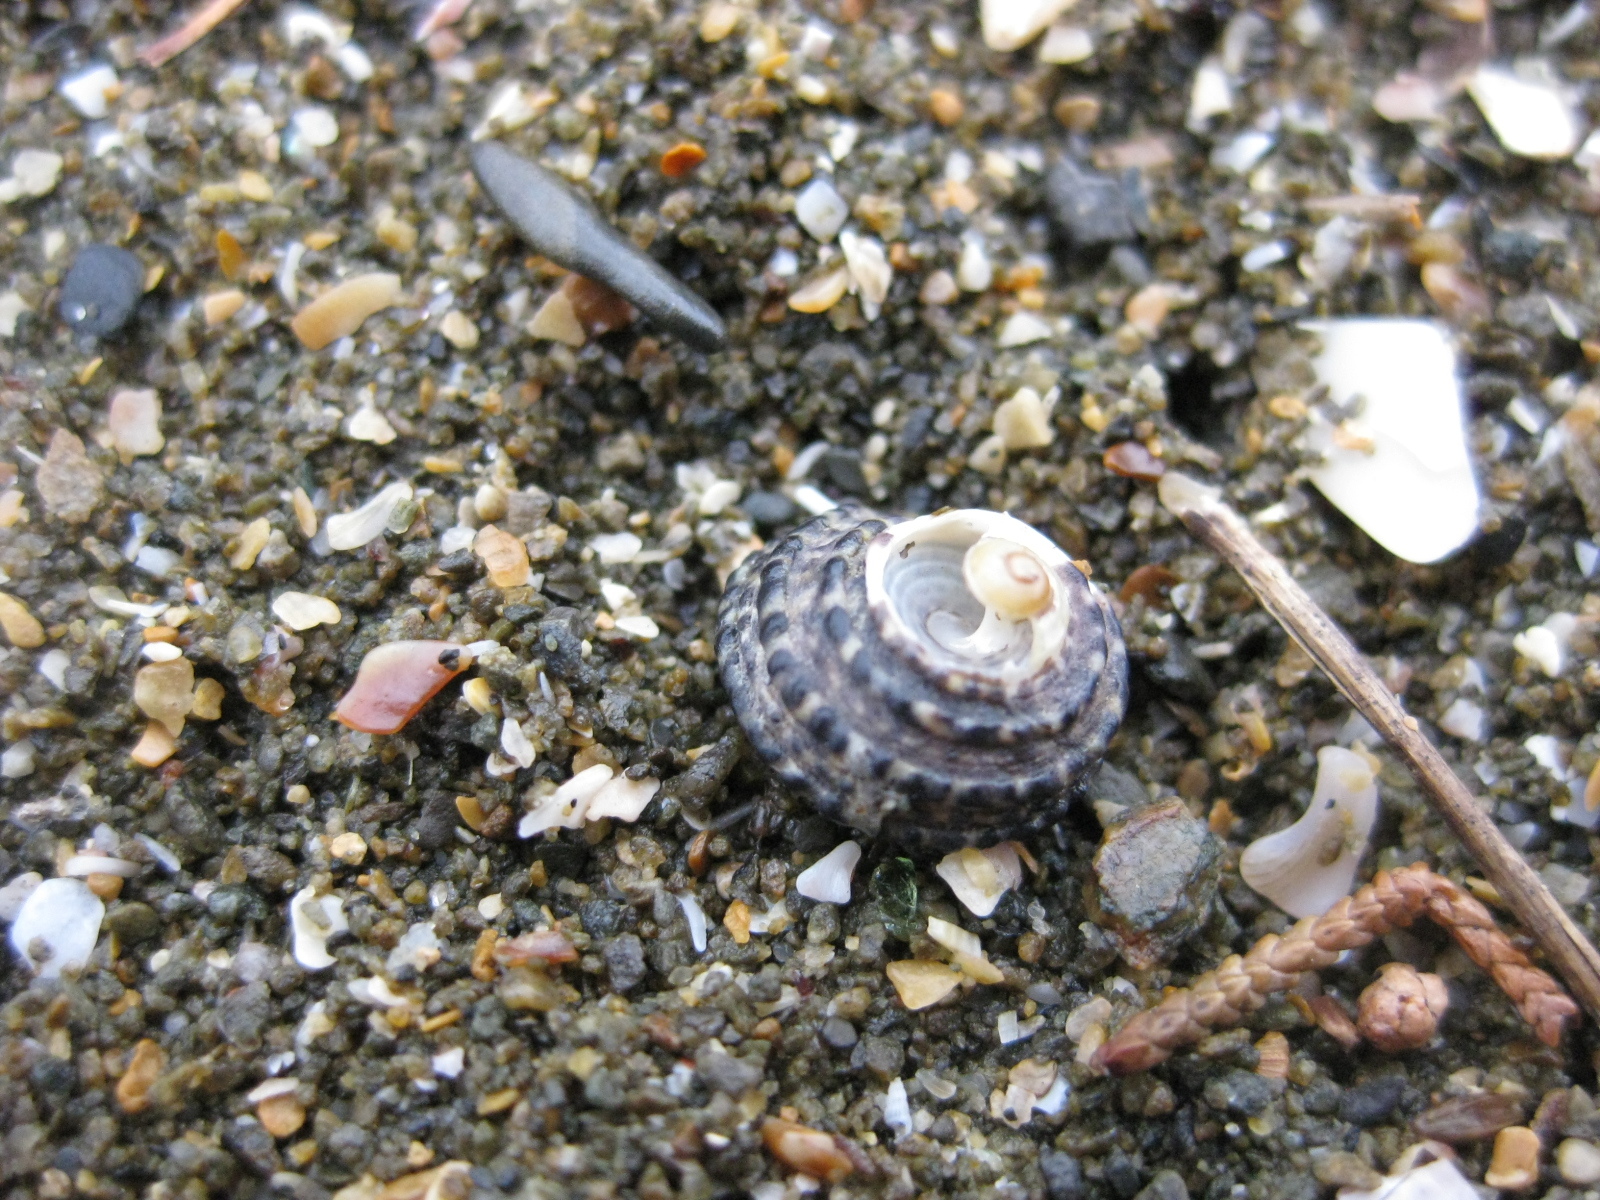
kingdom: Animalia
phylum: Mollusca
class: Gastropoda
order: Trochida
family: Trochidae
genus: Diloma
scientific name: Diloma bicanaliculatum
